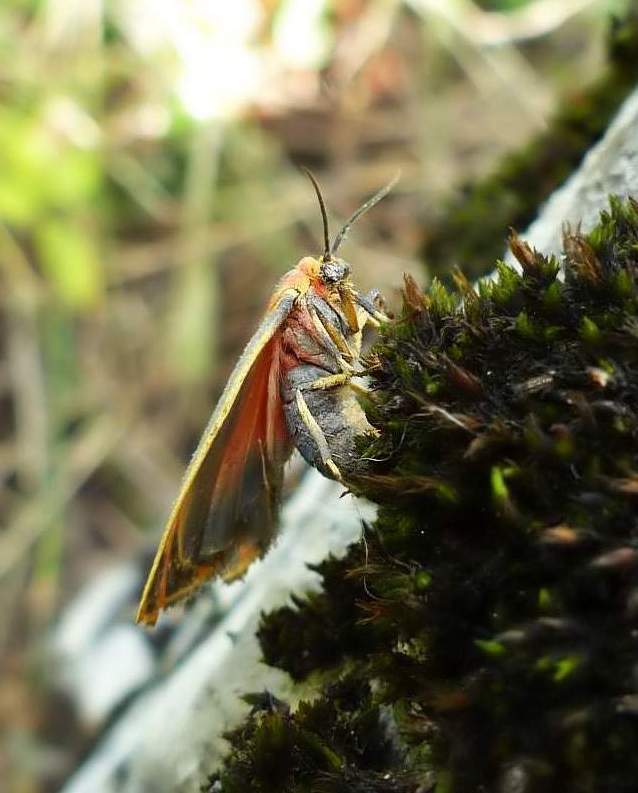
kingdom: Animalia
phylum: Arthropoda
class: Insecta
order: Lepidoptera
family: Erebidae
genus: Hypoprepia
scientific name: Hypoprepia fucosa
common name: Painted lichen moth
